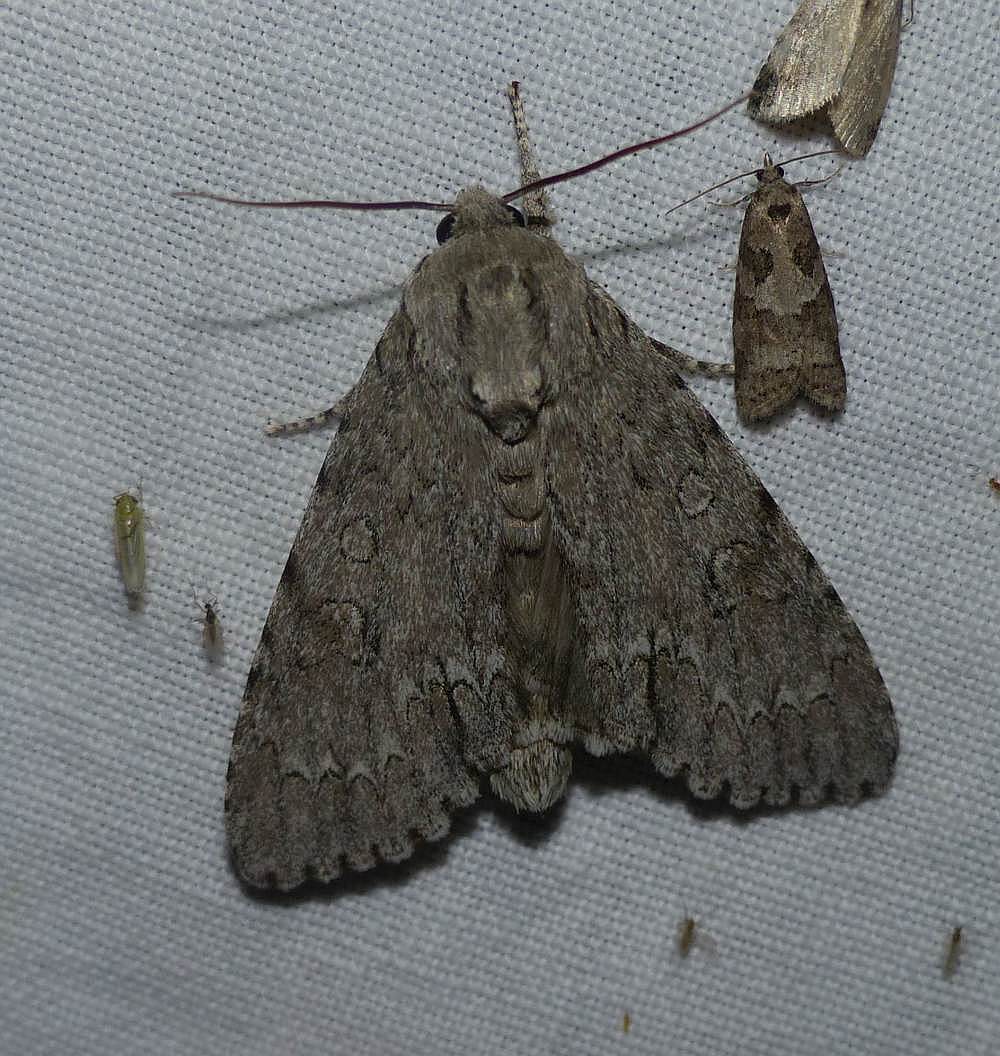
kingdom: Animalia
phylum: Arthropoda
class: Insecta
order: Lepidoptera
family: Noctuidae
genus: Acronicta
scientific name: Acronicta americana
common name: American dagger
